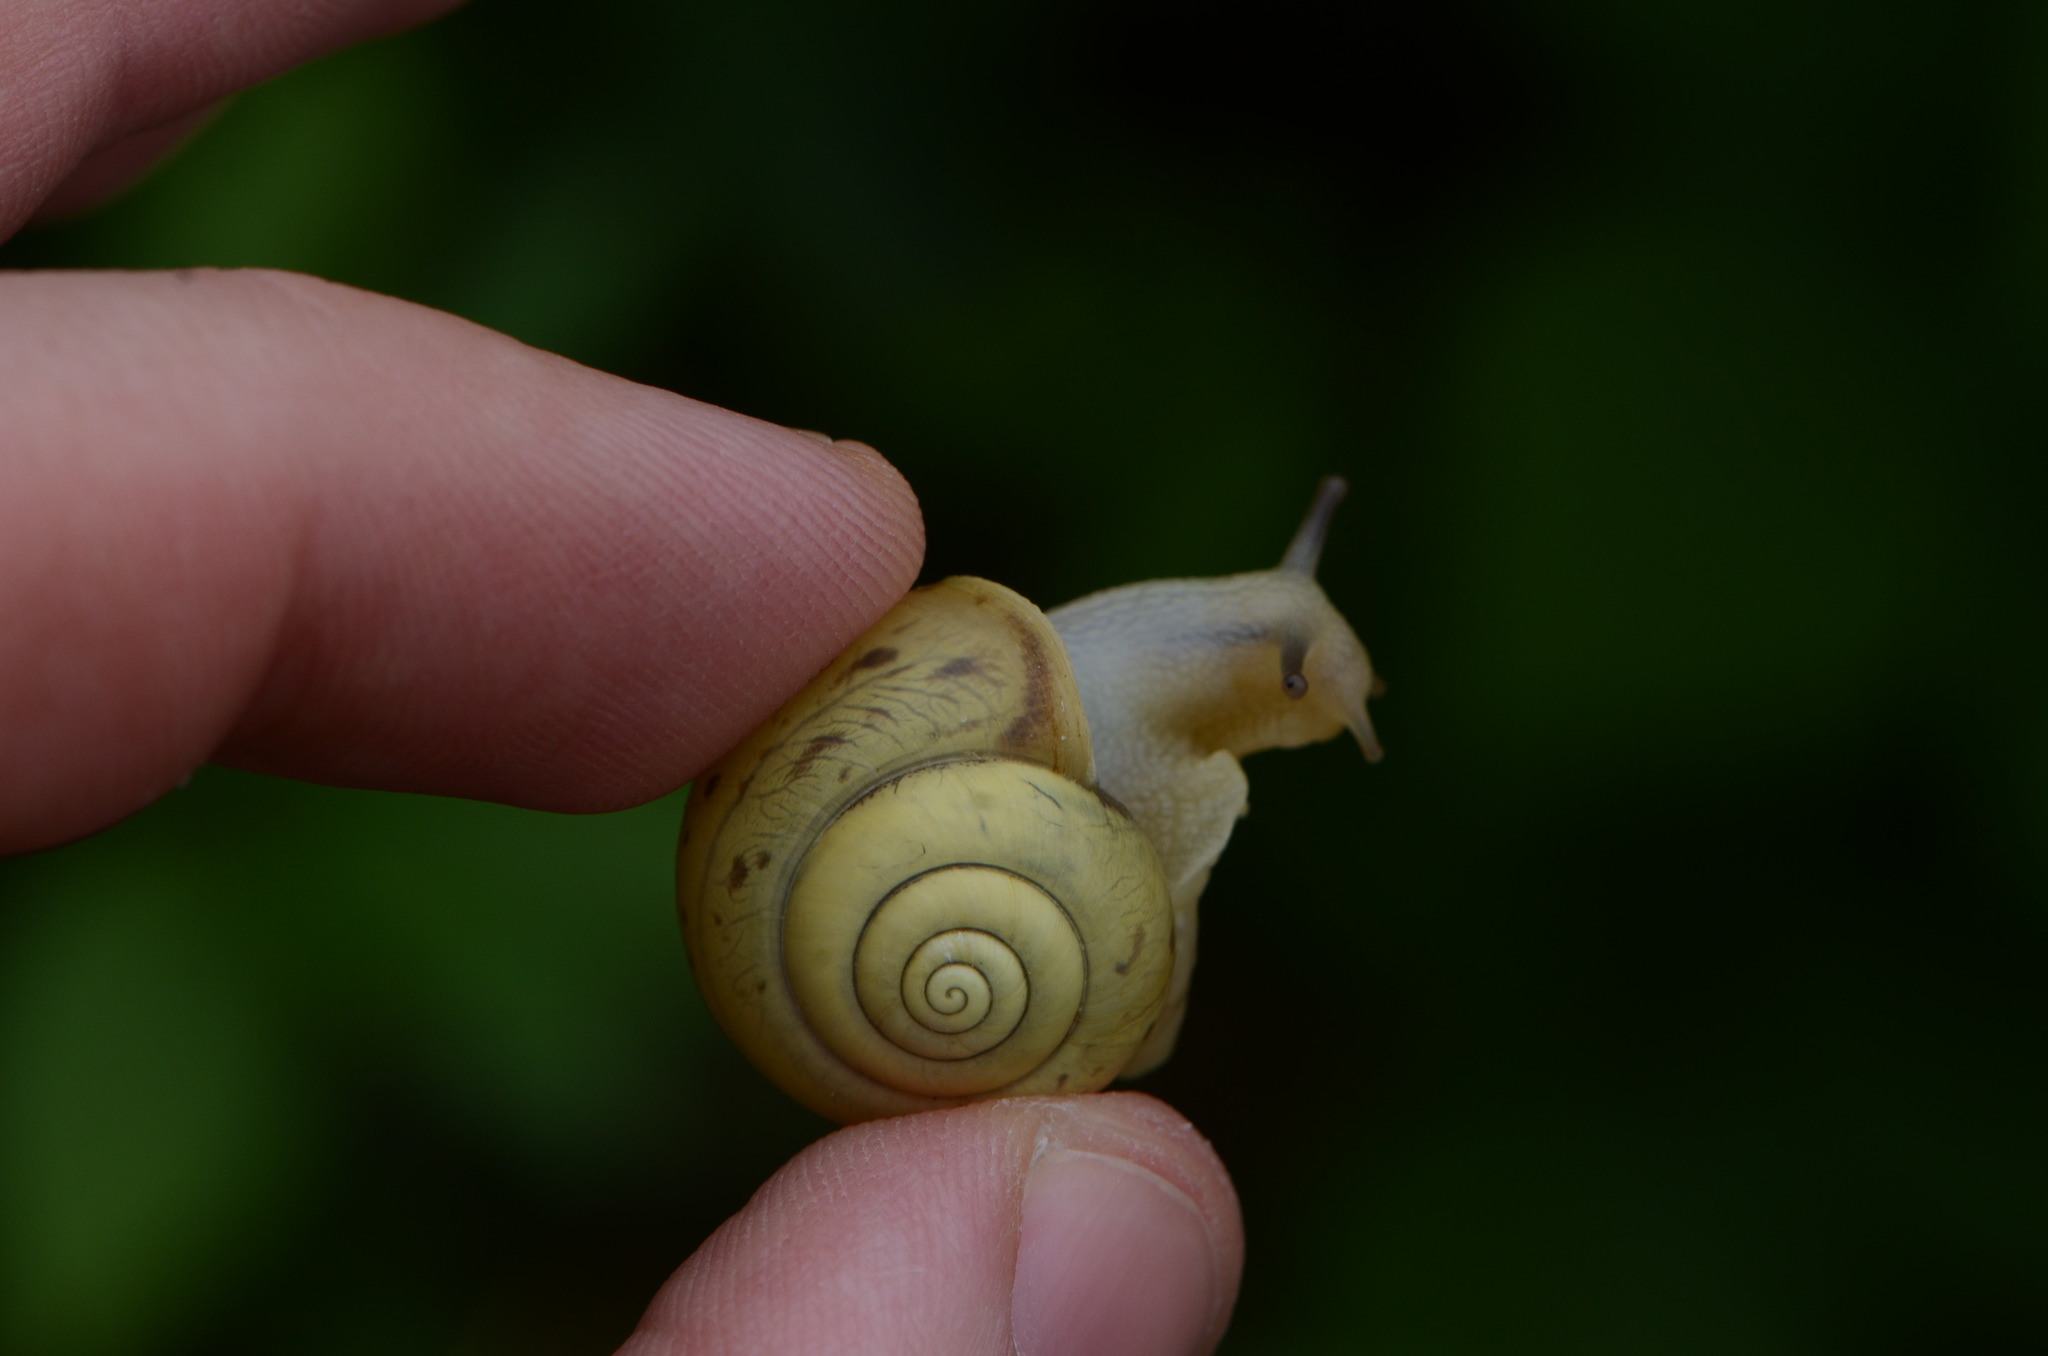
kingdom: Animalia
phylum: Mollusca
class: Gastropoda
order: Stylommatophora
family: Camaenidae
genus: Fruticicola
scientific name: Fruticicola fruticum
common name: Bush snail
